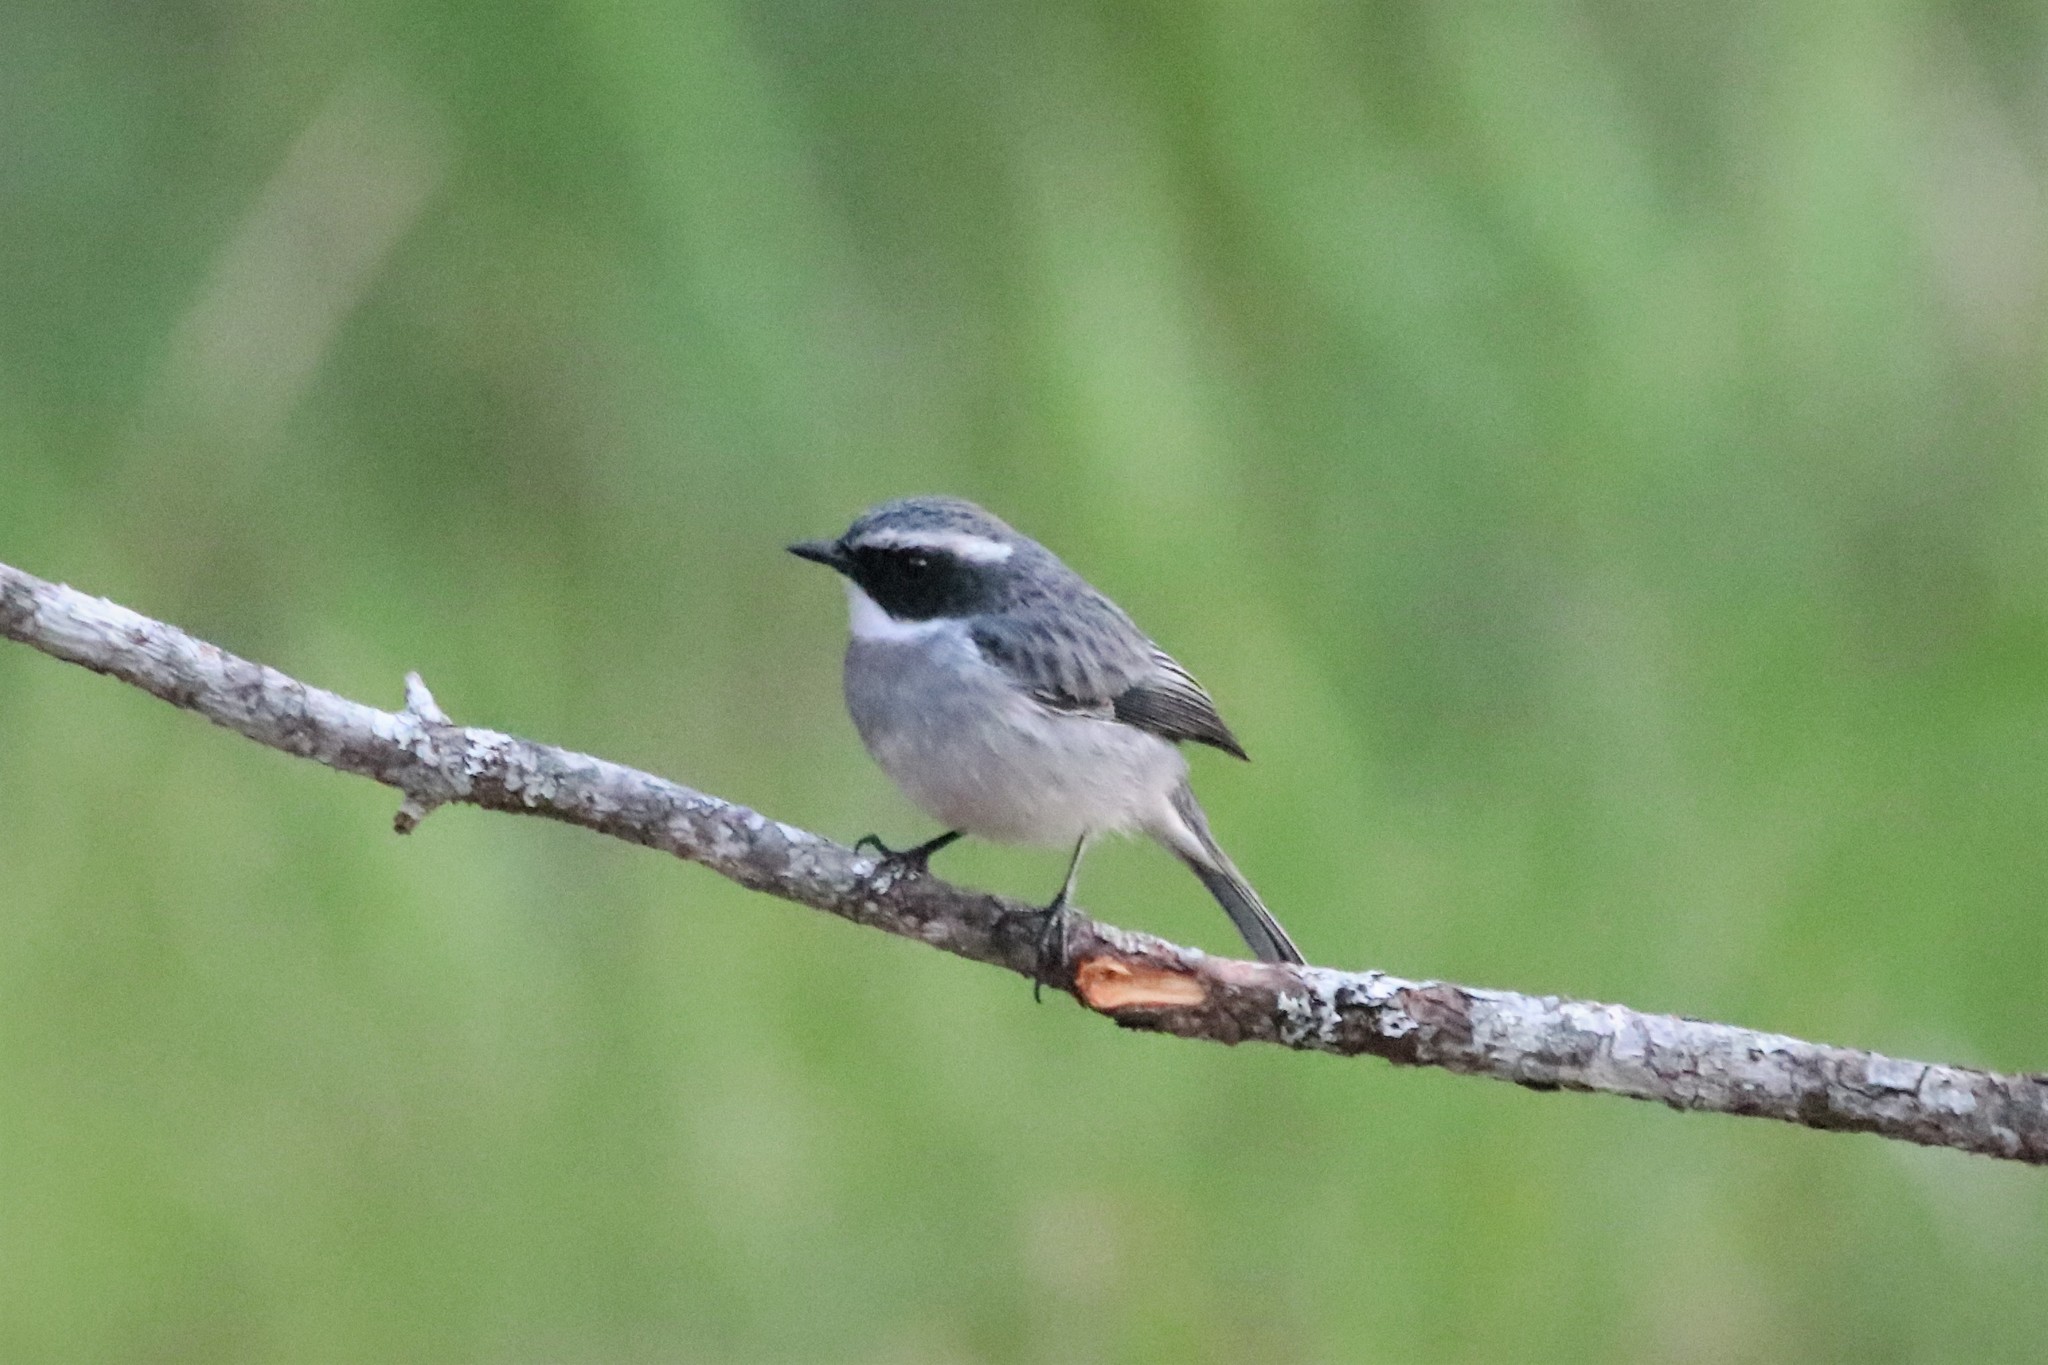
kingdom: Animalia
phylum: Chordata
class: Aves
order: Passeriformes
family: Muscicapidae
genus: Saxicola
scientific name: Saxicola ferreus
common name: Grey bush chat
